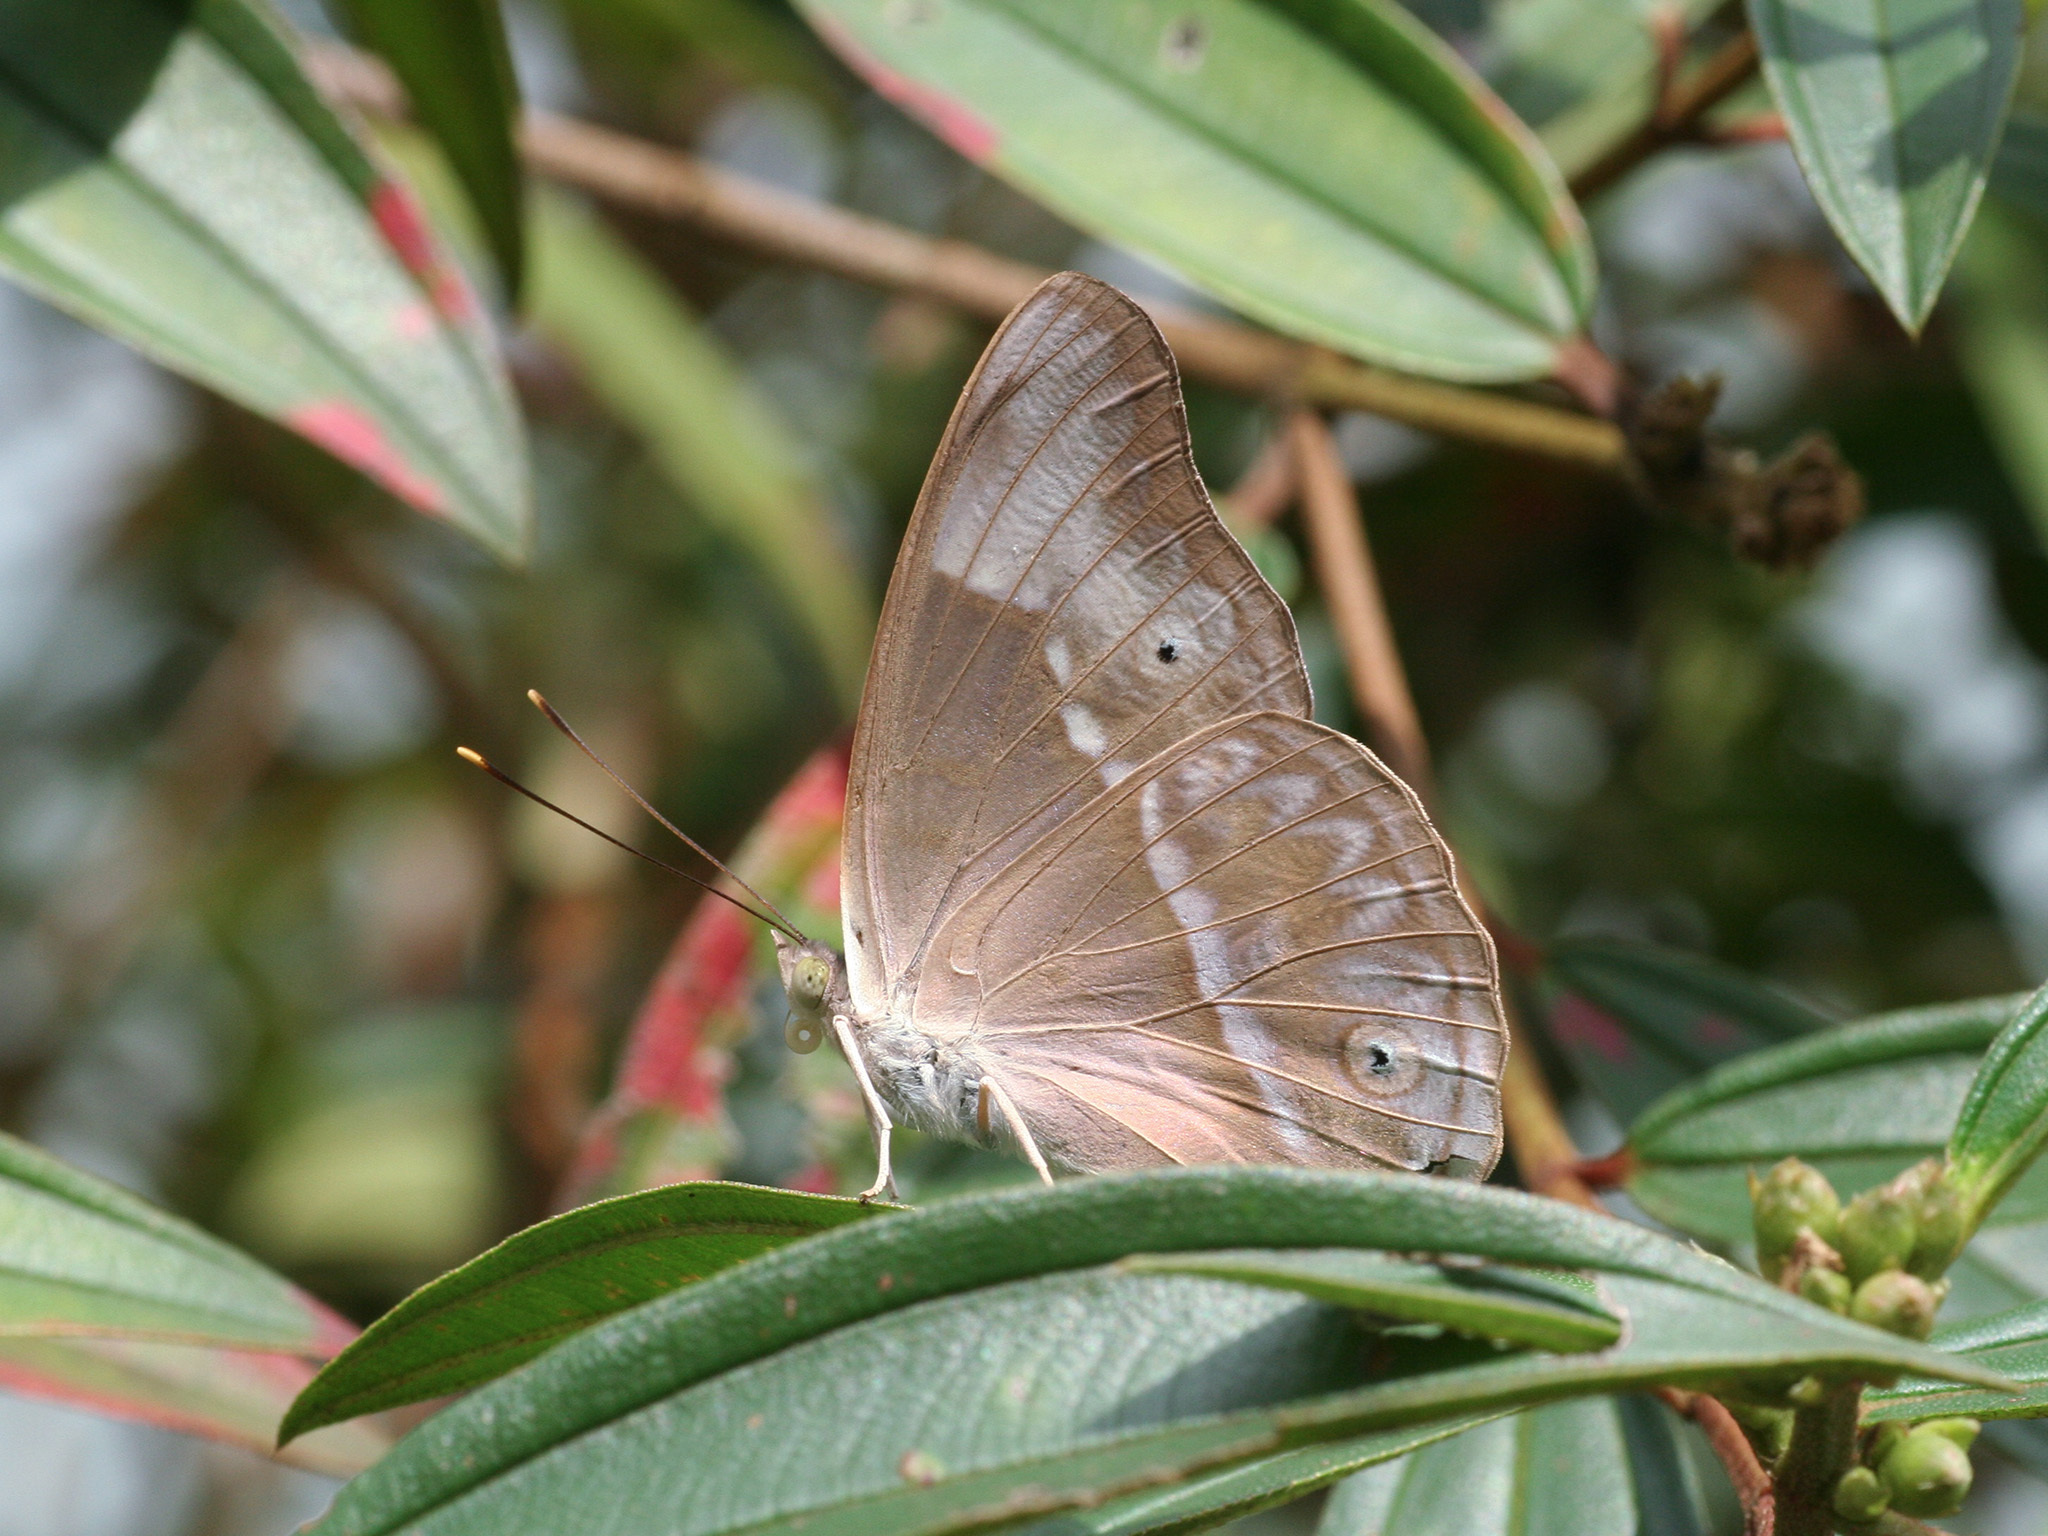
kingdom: Animalia
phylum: Arthropoda
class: Insecta
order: Lepidoptera
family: Nymphalidae
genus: Eulaceura
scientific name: Eulaceura osteria
